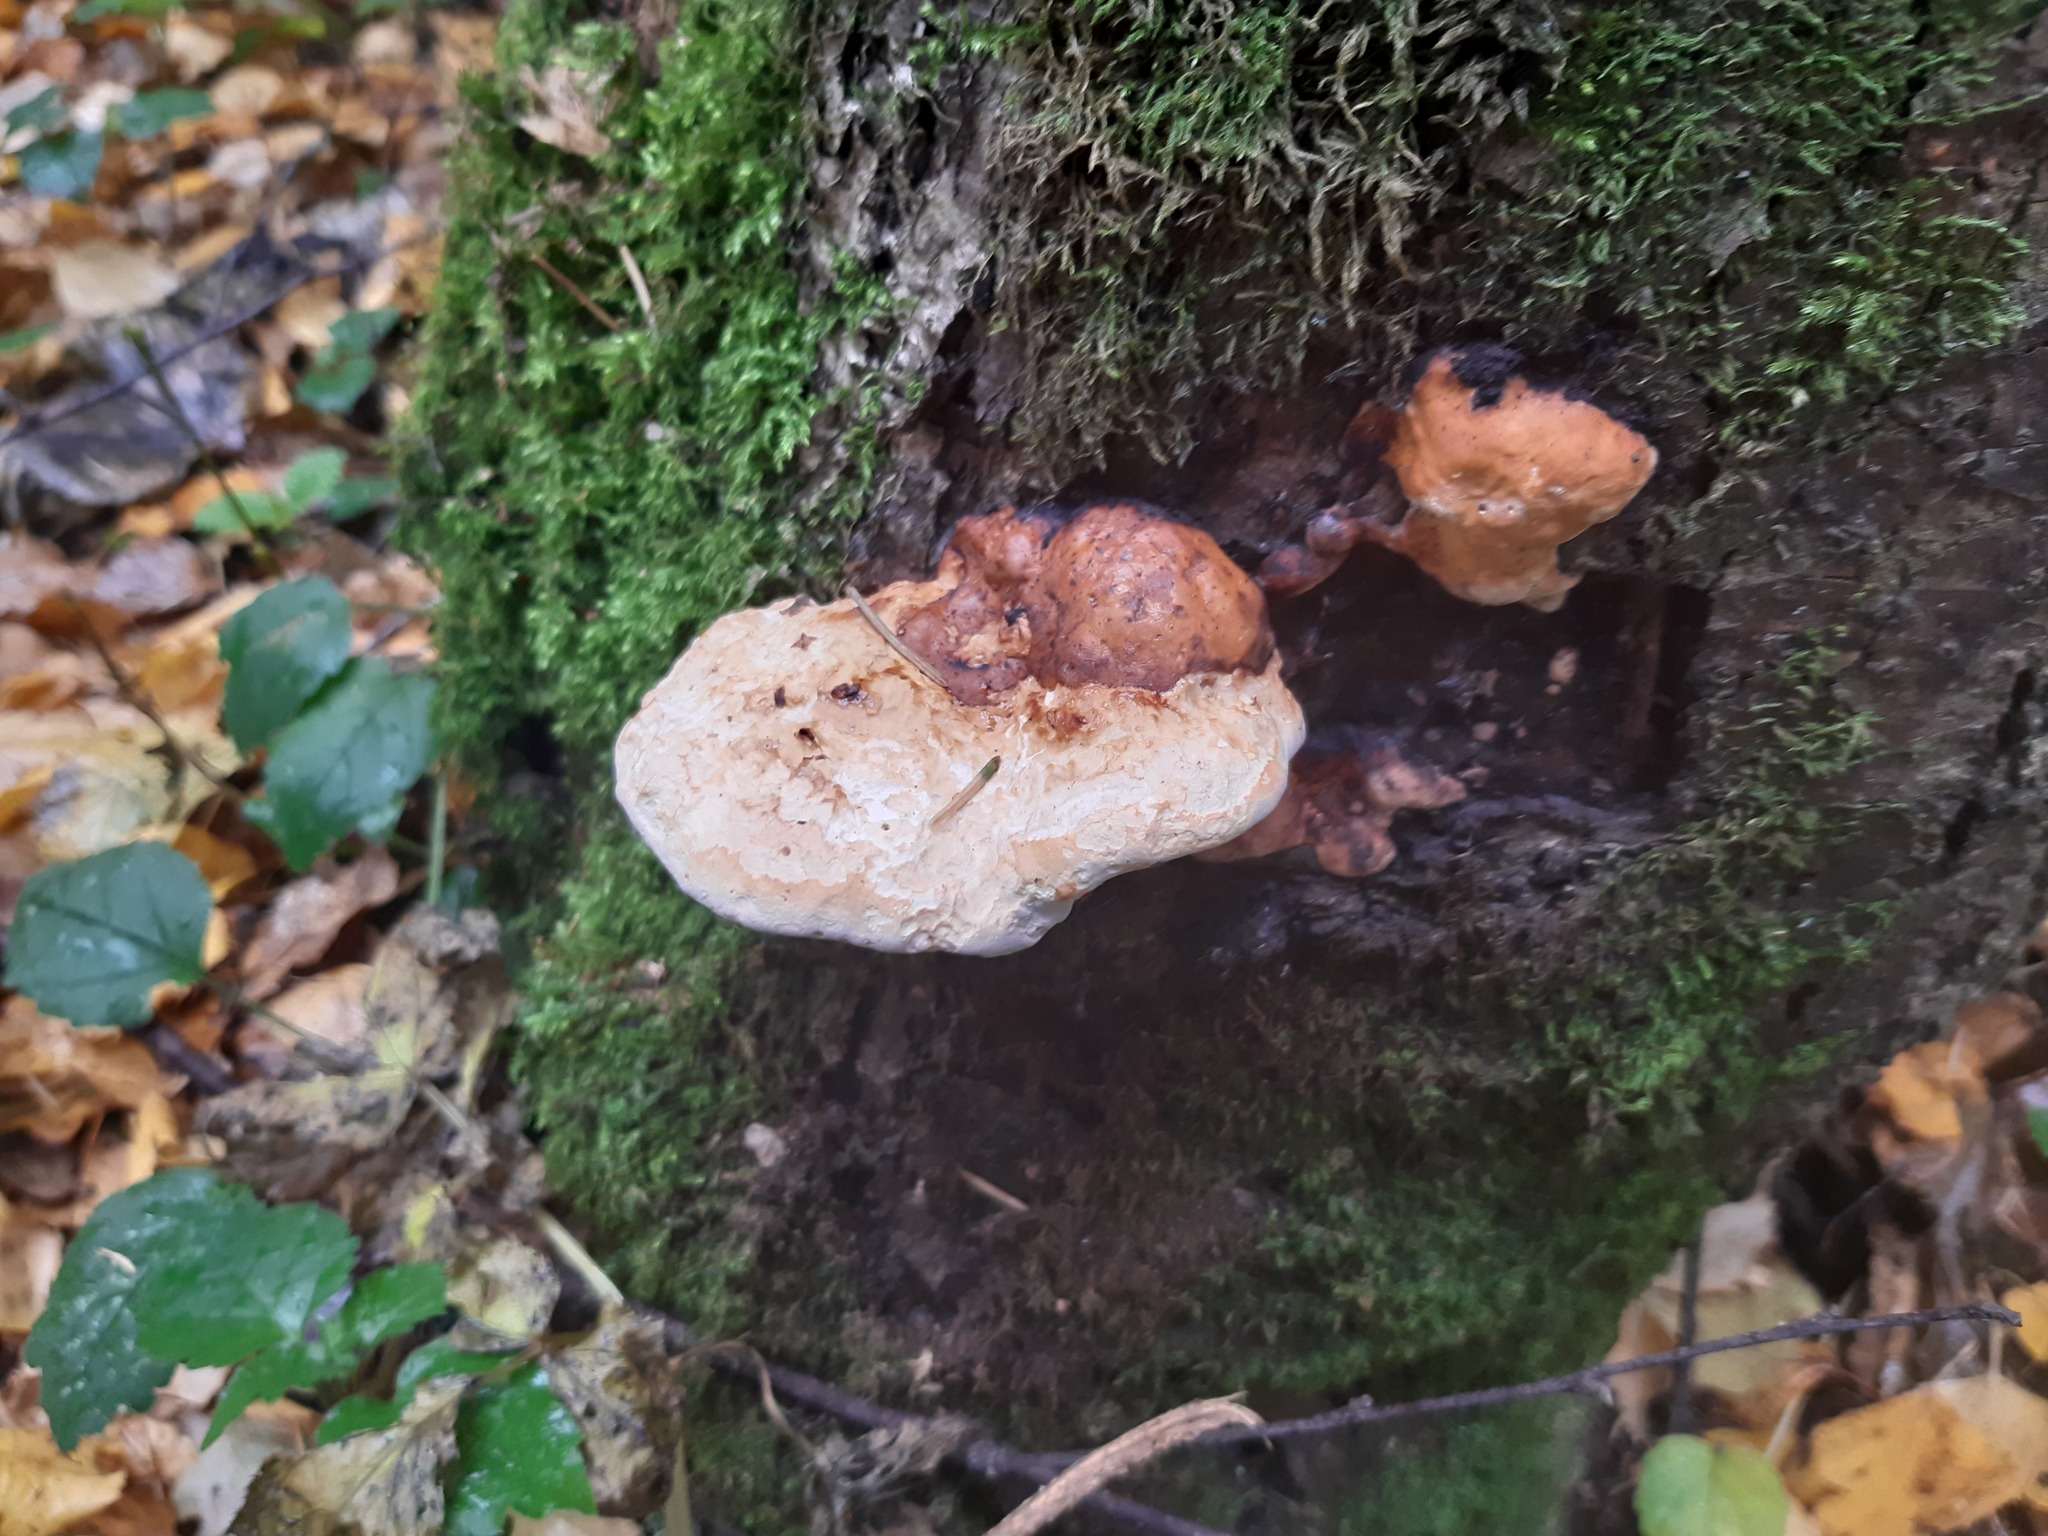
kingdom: Fungi
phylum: Basidiomycota
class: Agaricomycetes
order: Polyporales
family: Fomitopsidaceae
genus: Fomitopsis
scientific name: Fomitopsis pinicola
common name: Red-belted bracket
